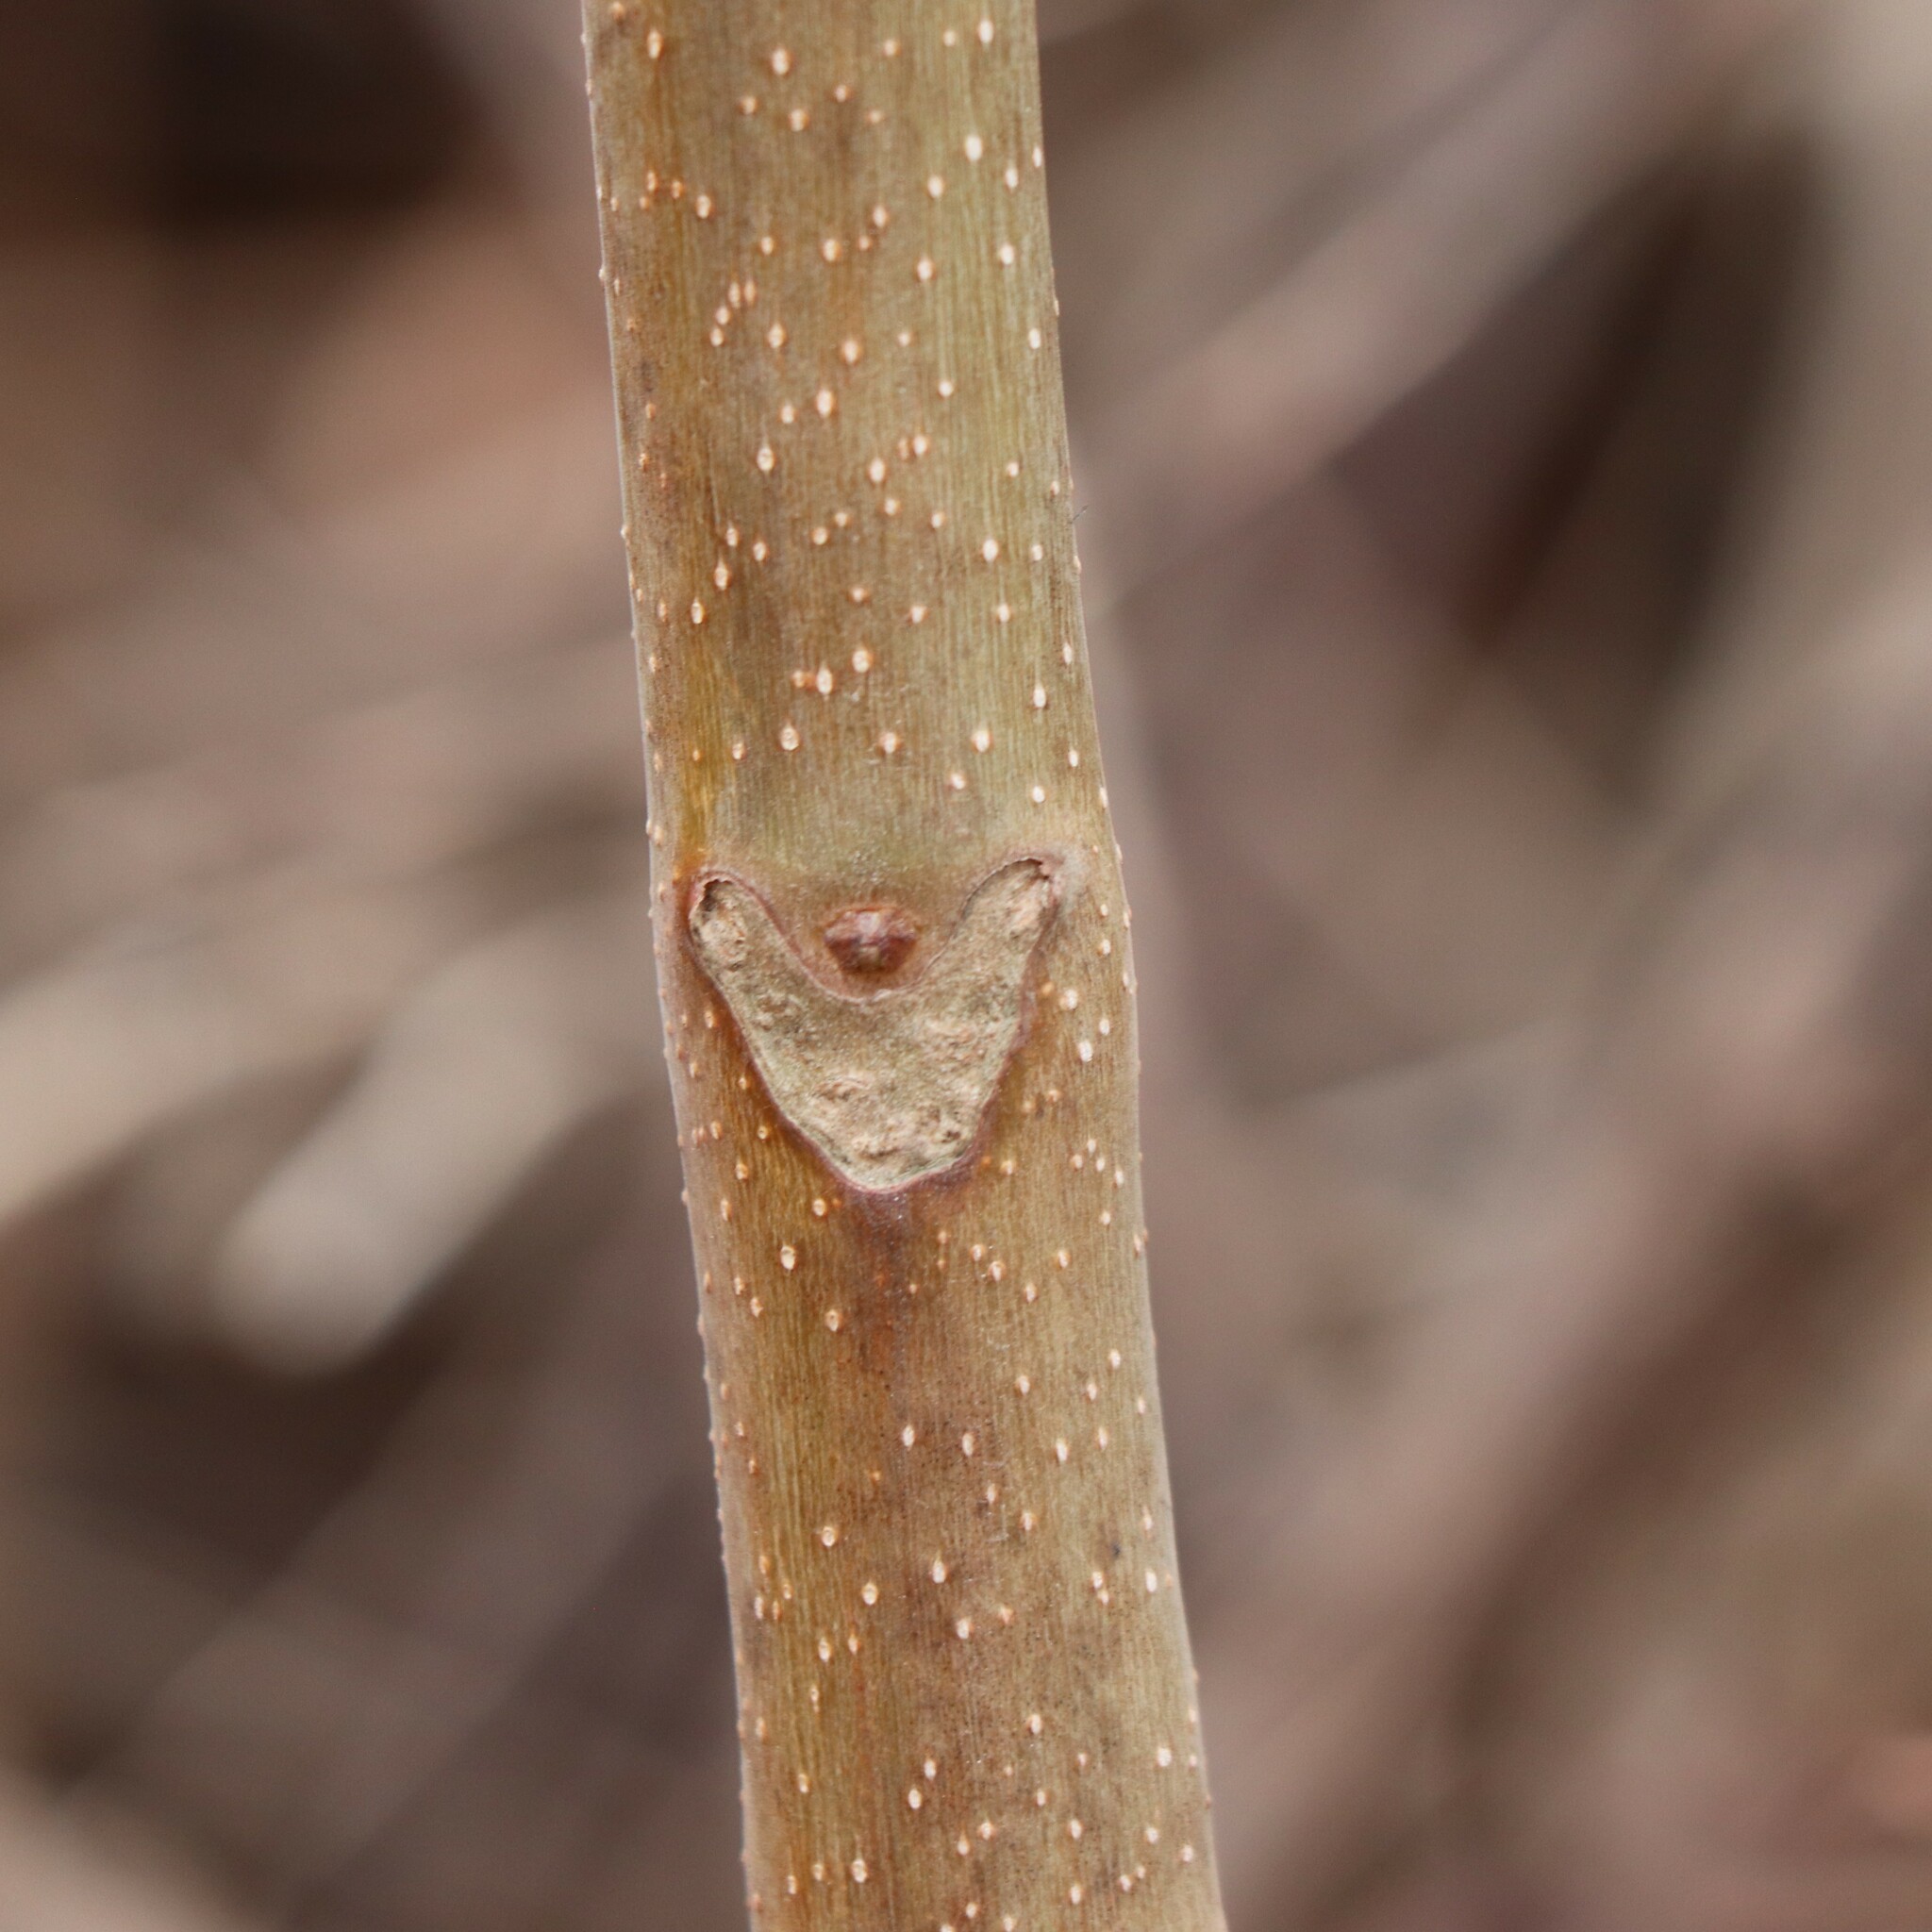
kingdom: Plantae
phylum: Tracheophyta
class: Magnoliopsida
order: Sapindales
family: Simaroubaceae
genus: Ailanthus
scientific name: Ailanthus altissima
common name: Tree-of-heaven
